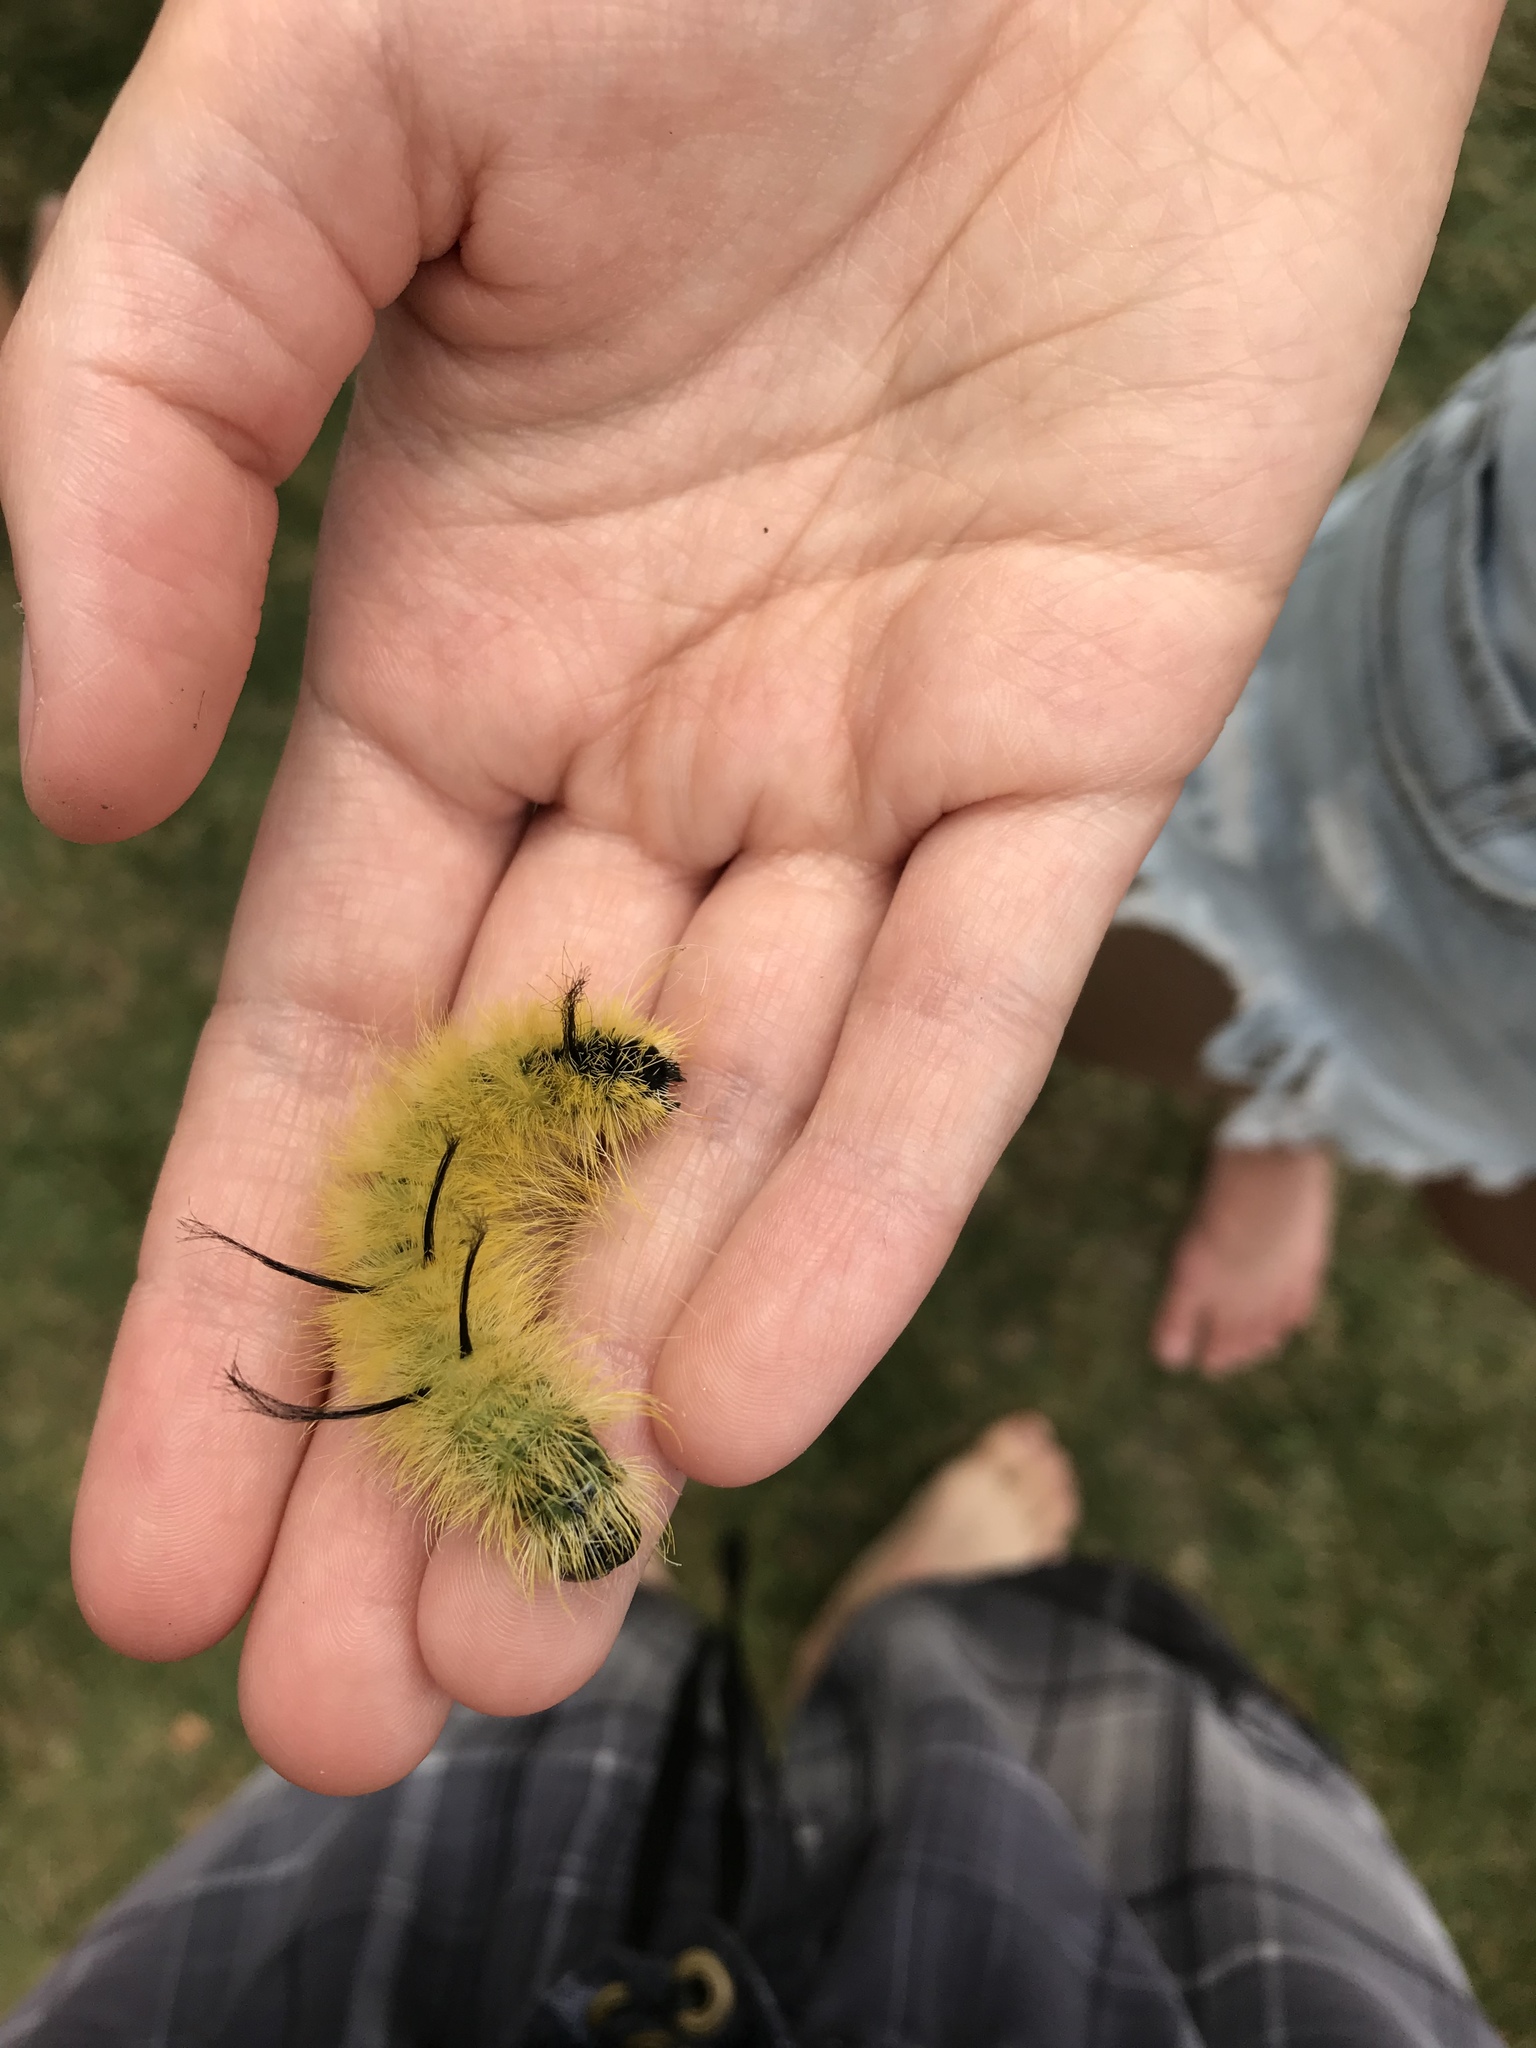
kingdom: Animalia
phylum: Arthropoda
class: Insecta
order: Lepidoptera
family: Noctuidae
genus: Acronicta
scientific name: Acronicta americana
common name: American dagger
